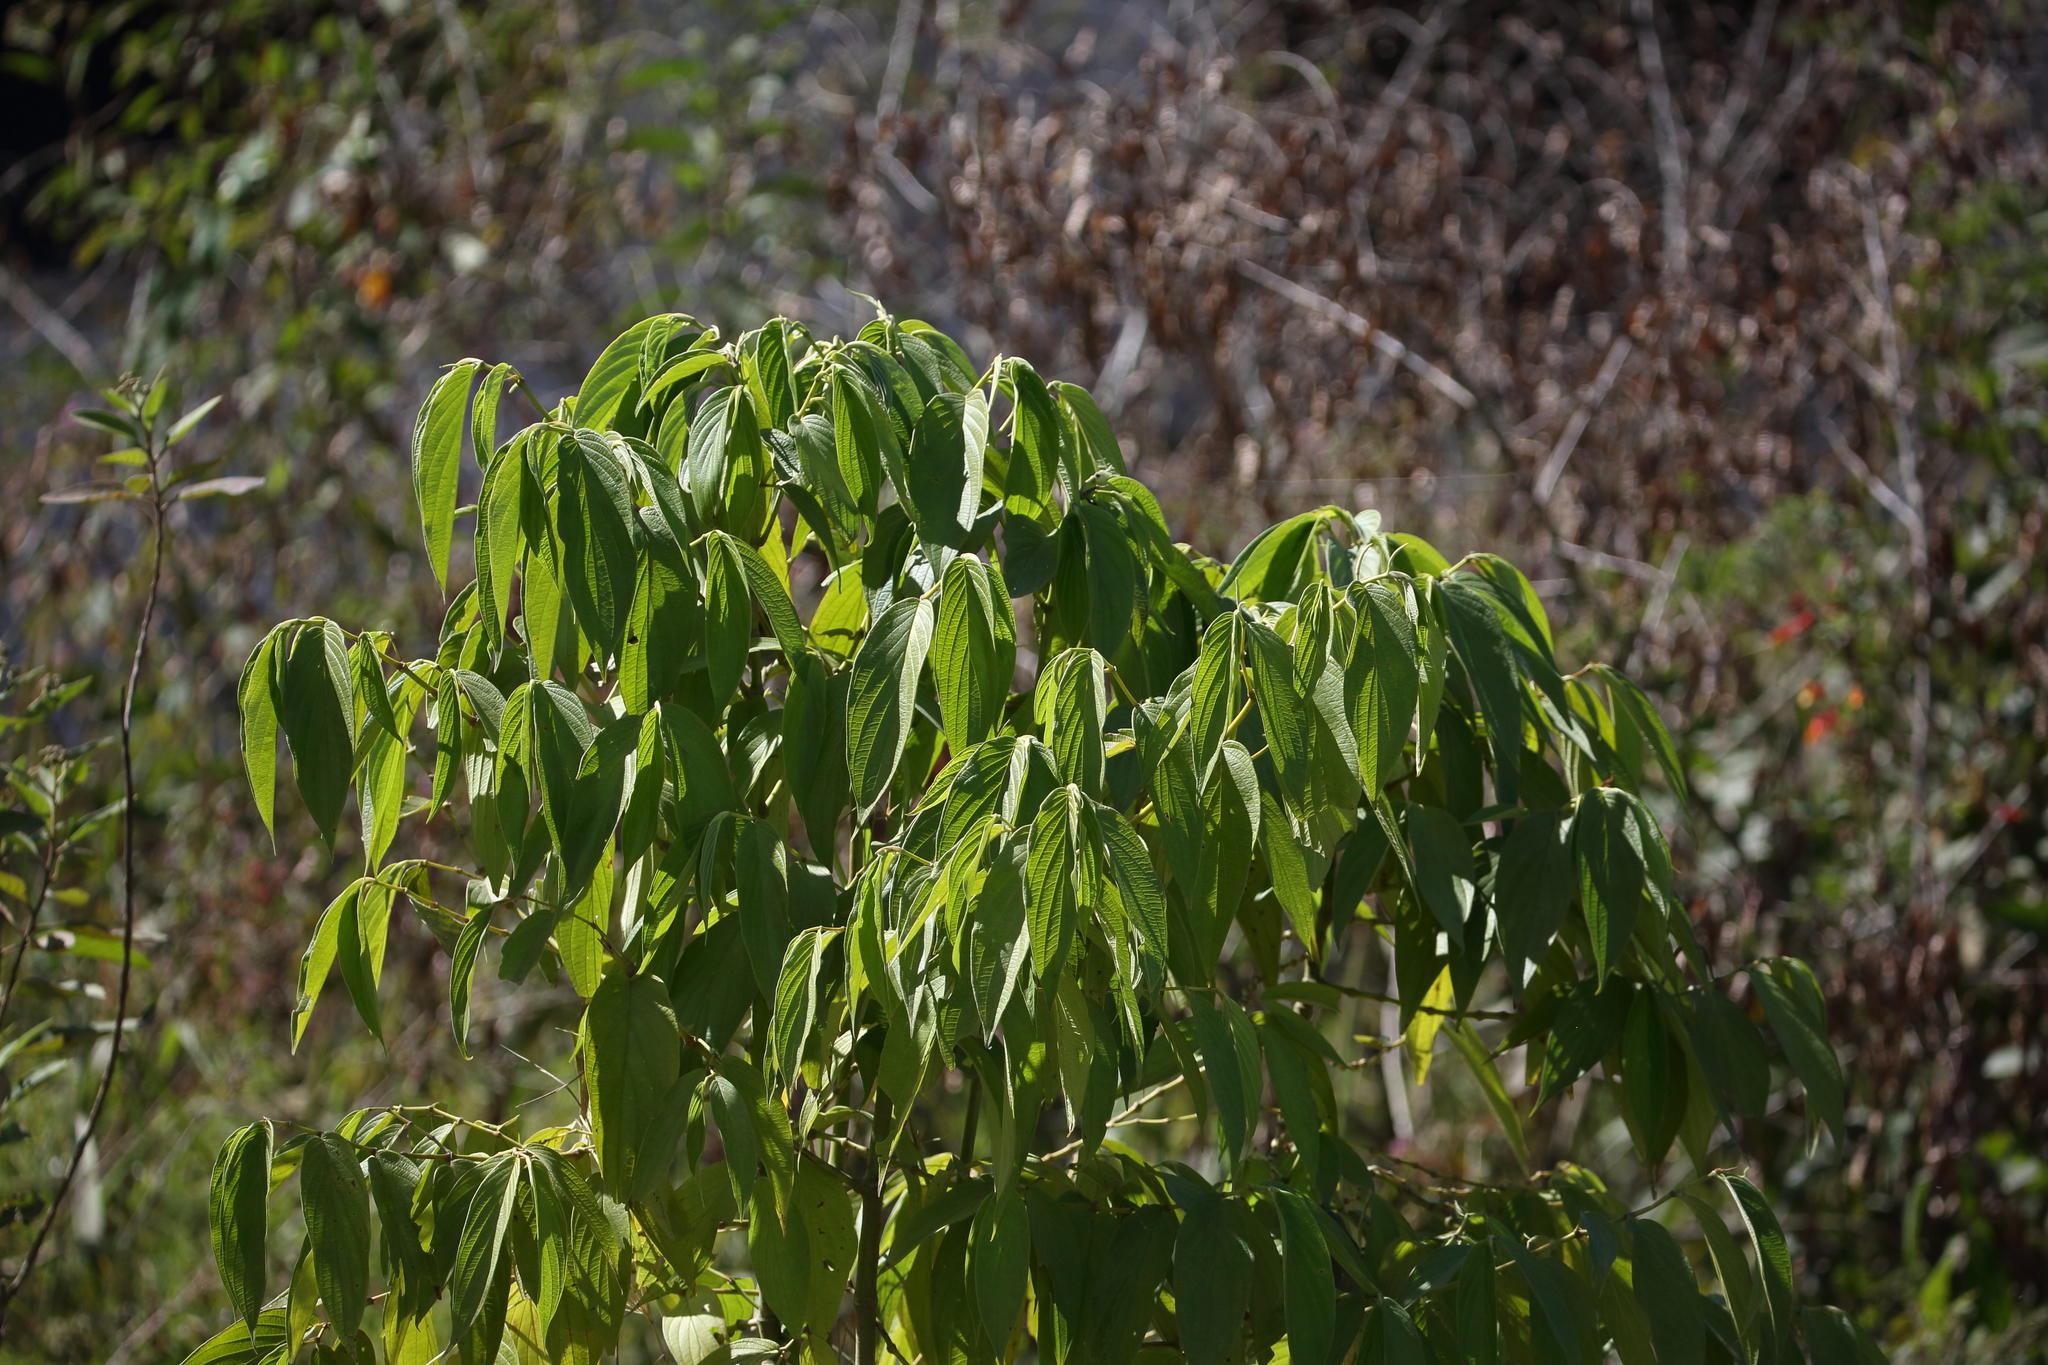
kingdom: Plantae
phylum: Tracheophyta
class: Magnoliopsida
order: Piperales
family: Piperaceae
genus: Piper
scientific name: Piper aduncum
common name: Spiked pepper
